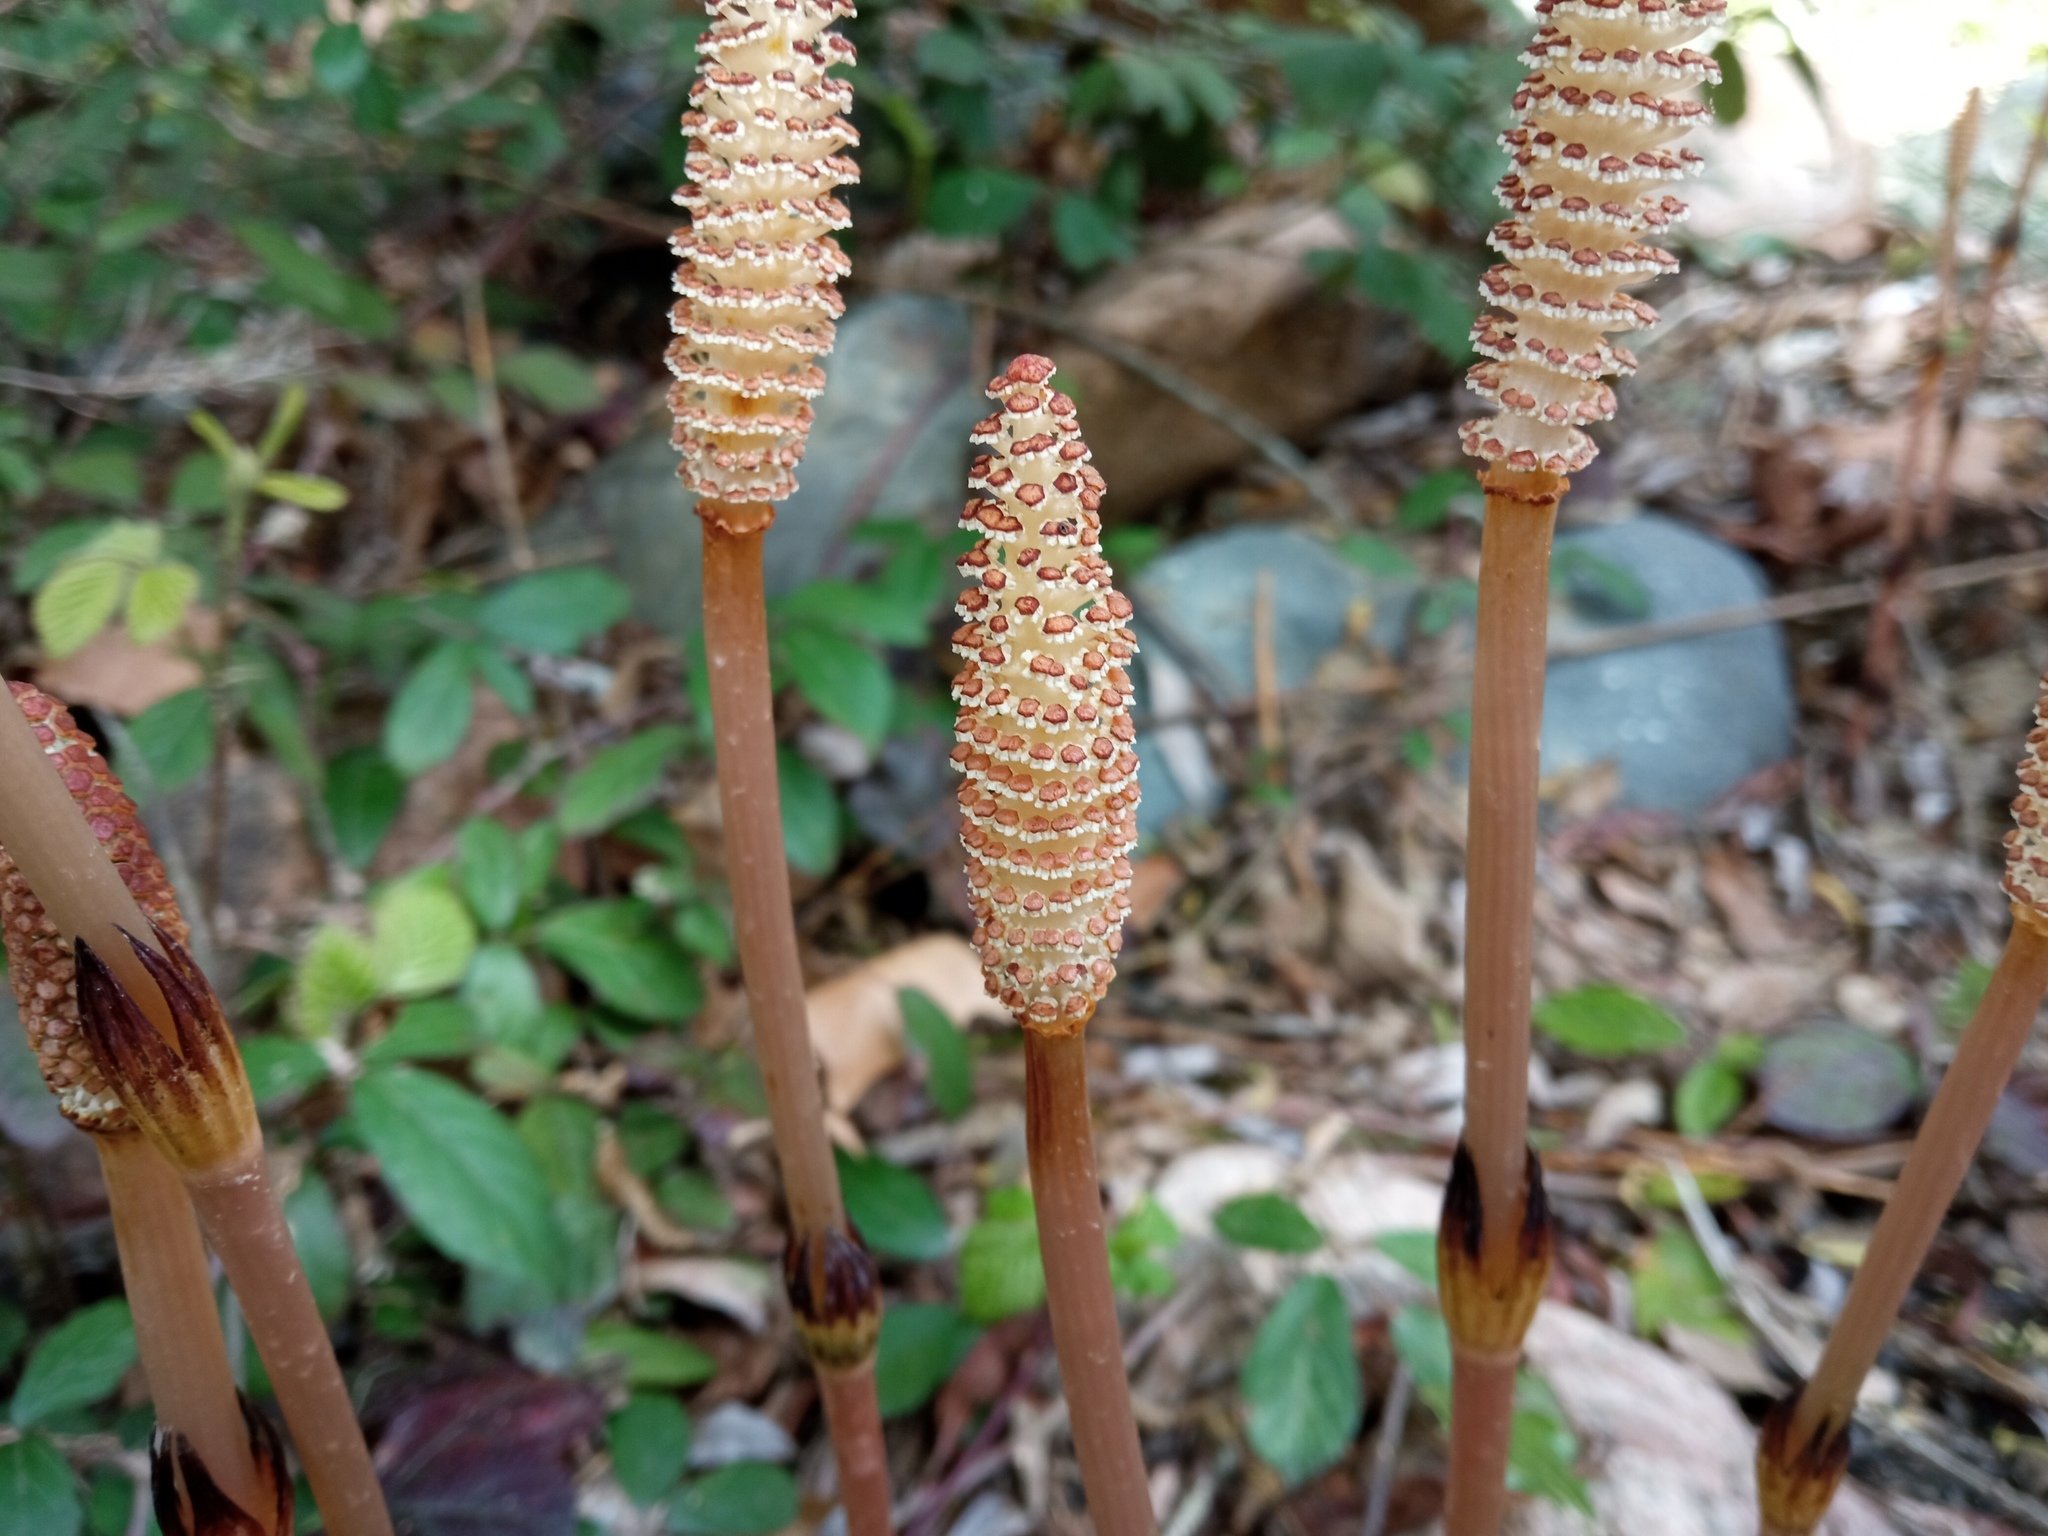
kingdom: Plantae
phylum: Tracheophyta
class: Polypodiopsida
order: Equisetales
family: Equisetaceae
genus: Equisetum
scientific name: Equisetum arvense
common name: Field horsetail
